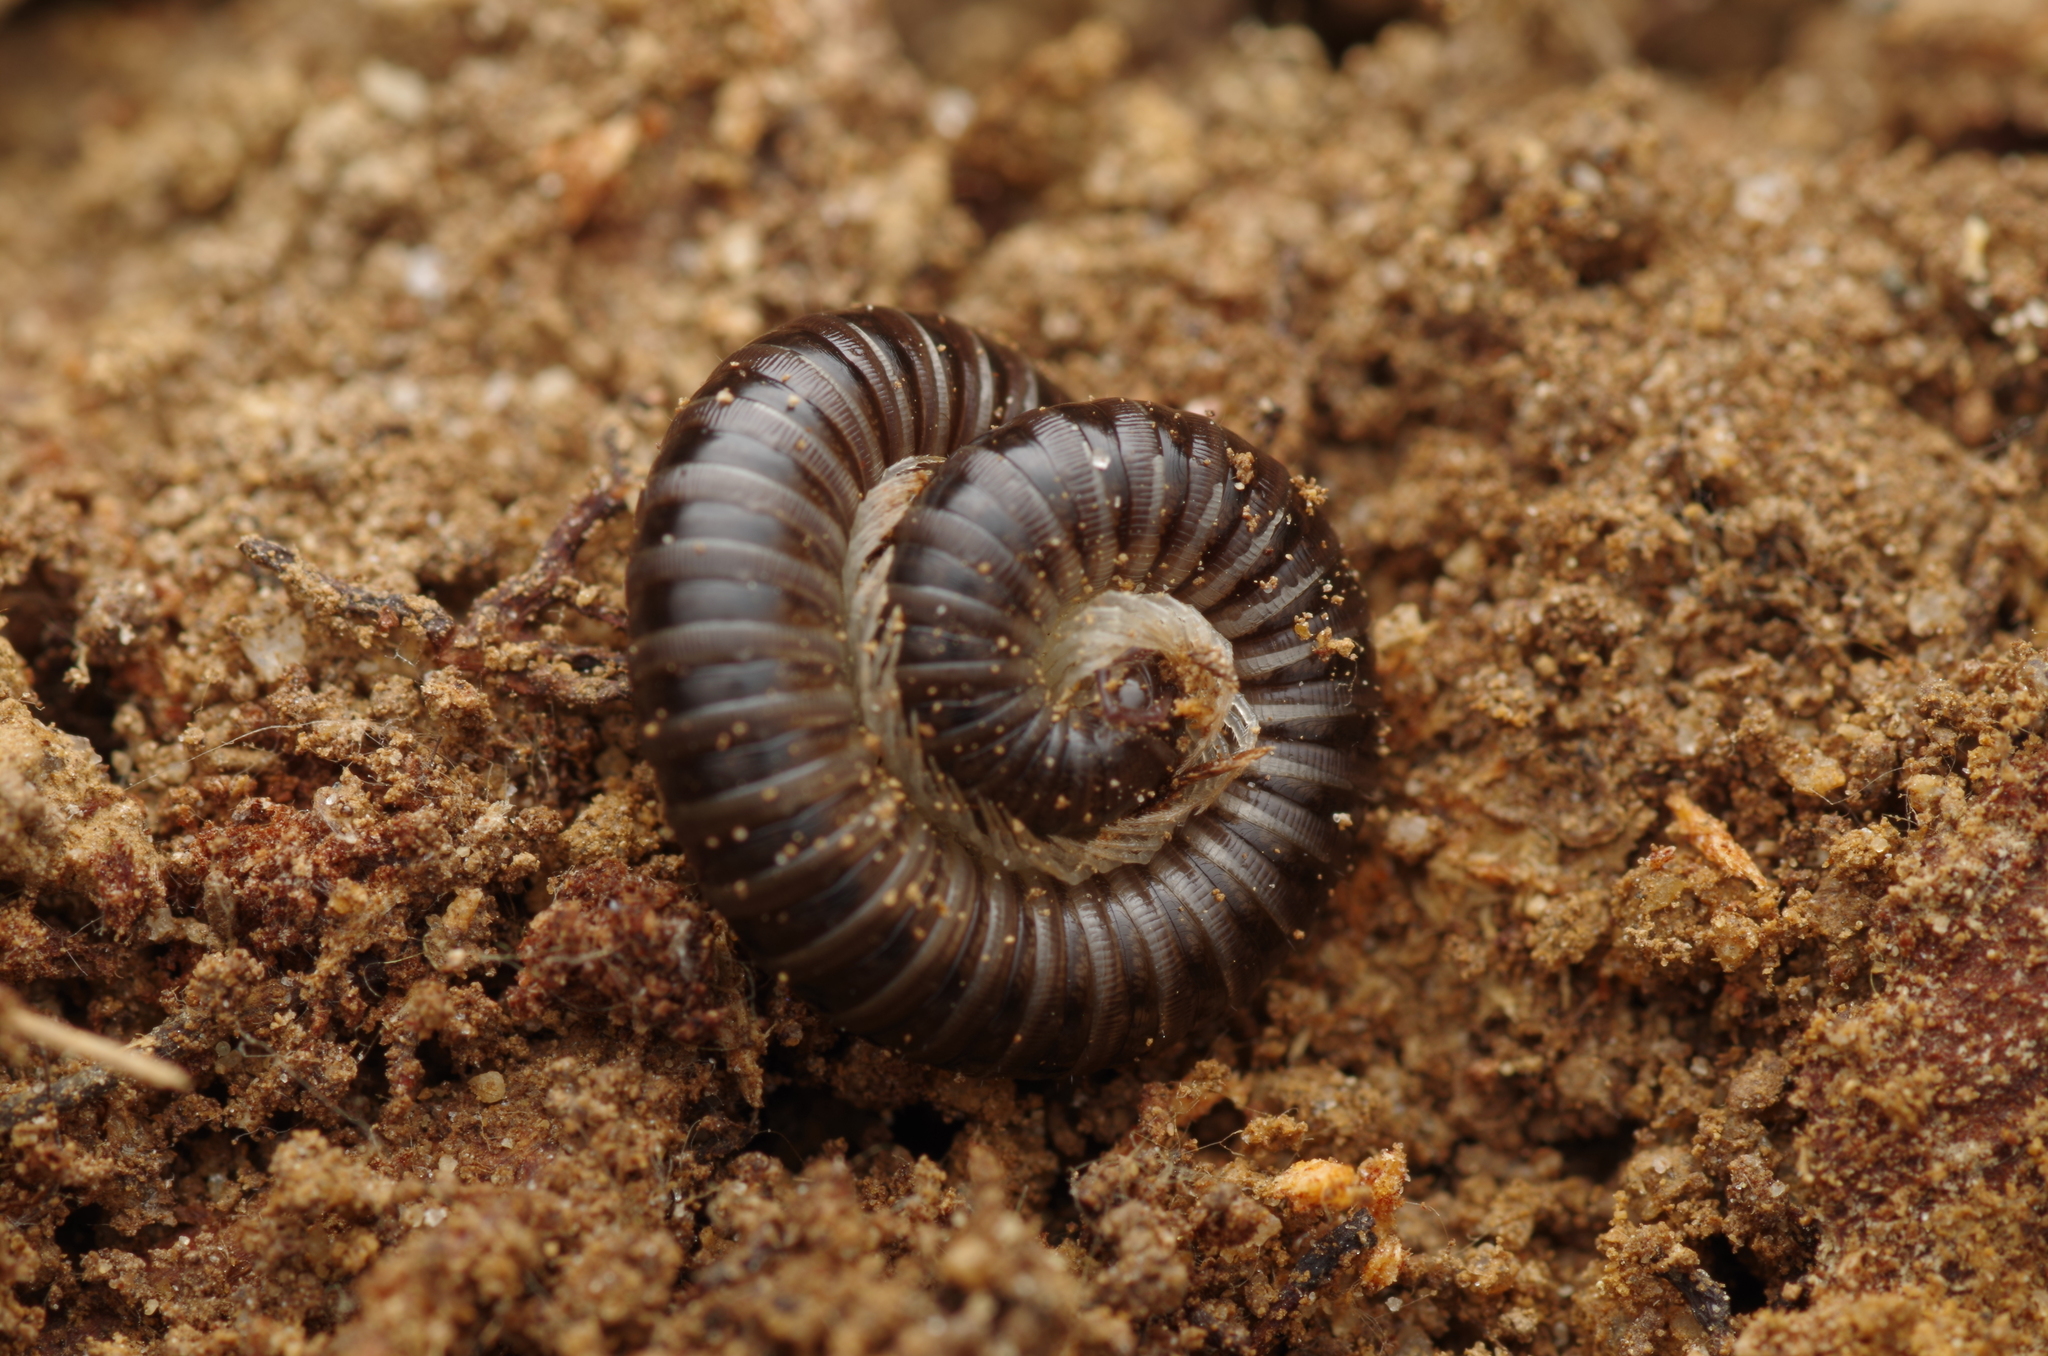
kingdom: Animalia
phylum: Arthropoda
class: Diplopoda
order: Julida
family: Julidae
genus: Tachypodoiulus
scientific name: Tachypodoiulus niger
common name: White-legged snake millipede
